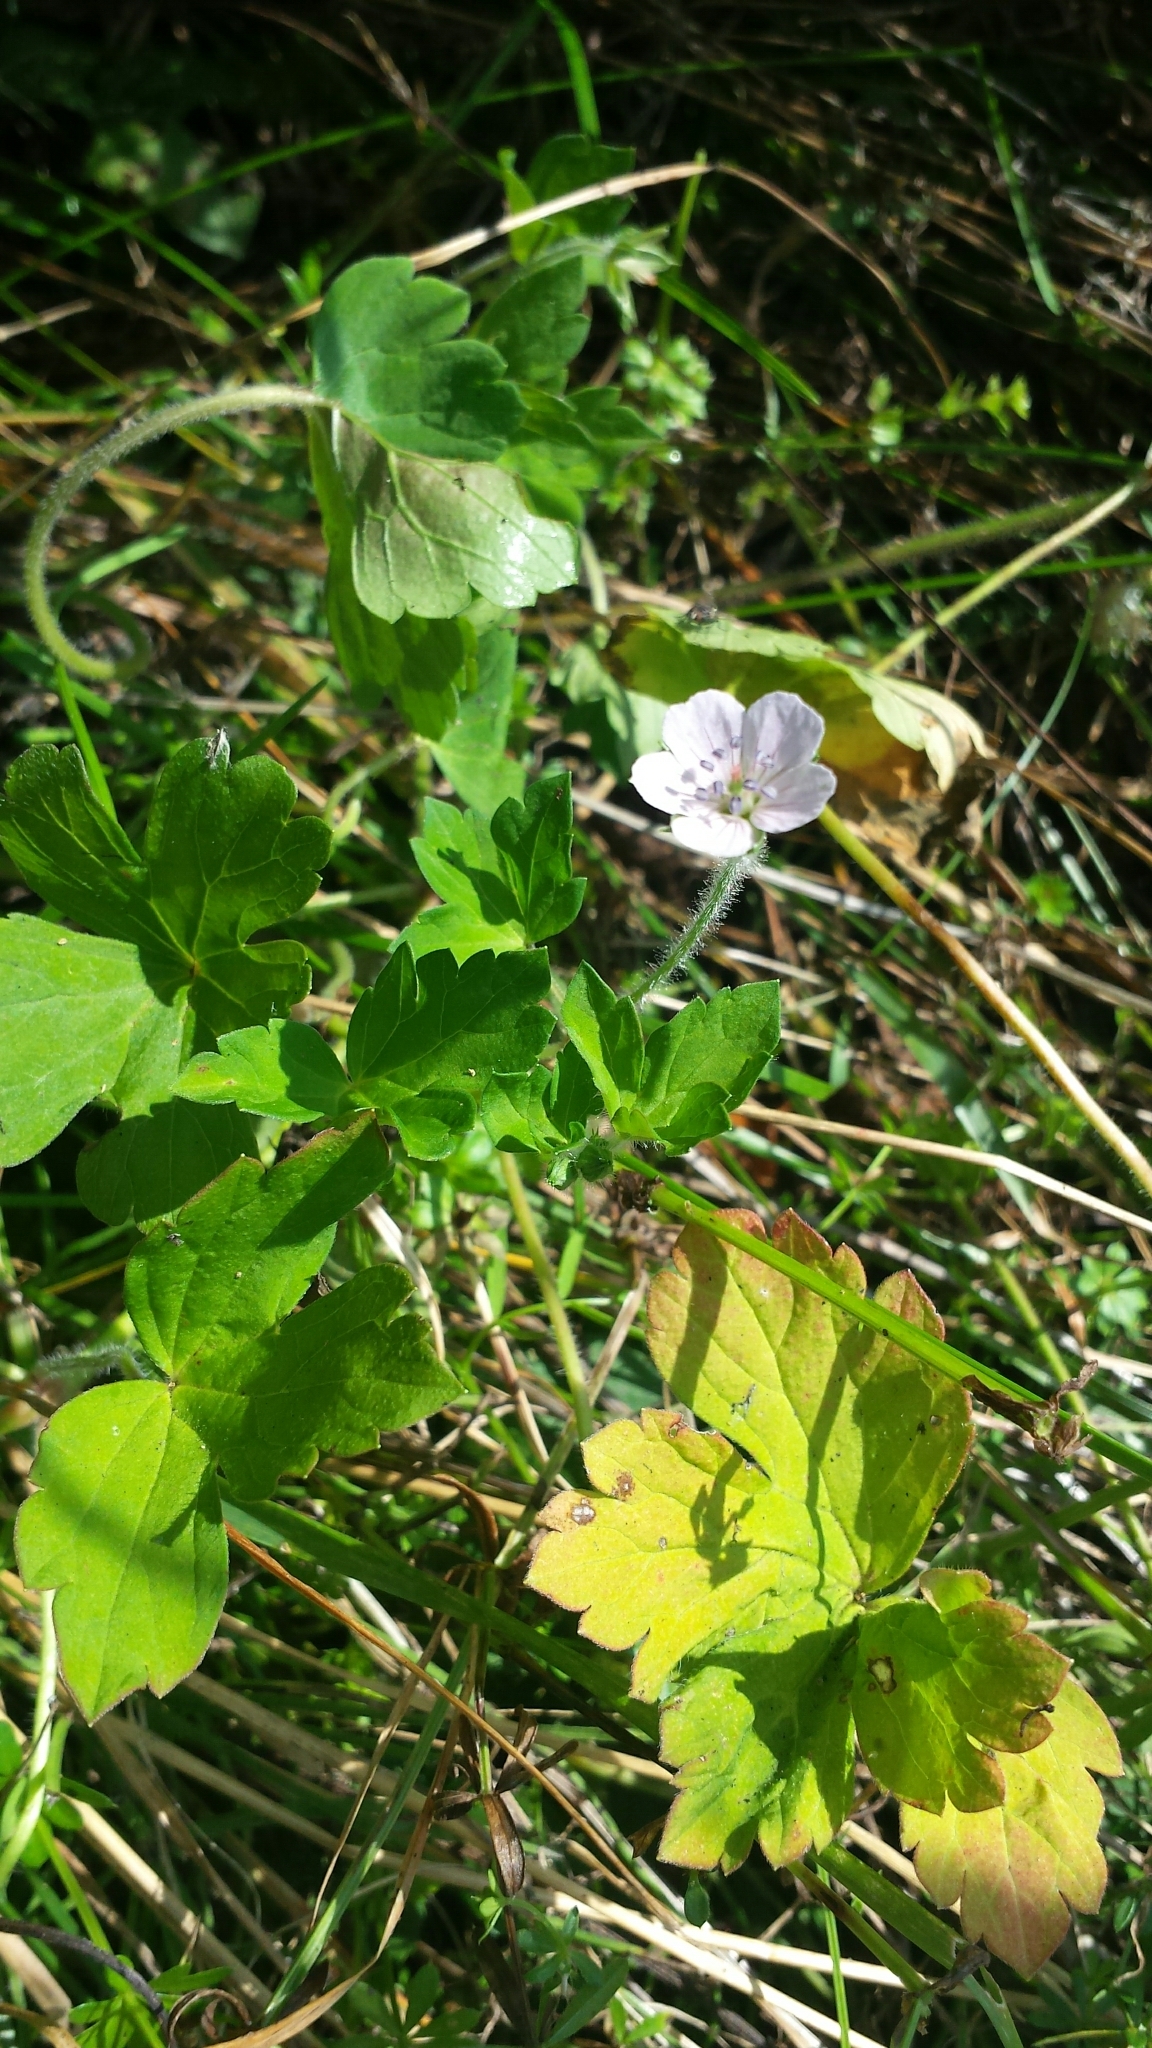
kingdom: Plantae
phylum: Tracheophyta
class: Magnoliopsida
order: Geraniales
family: Geraniaceae
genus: Geranium
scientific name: Geranium thunbergii
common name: Dewdrop crane's-bill
